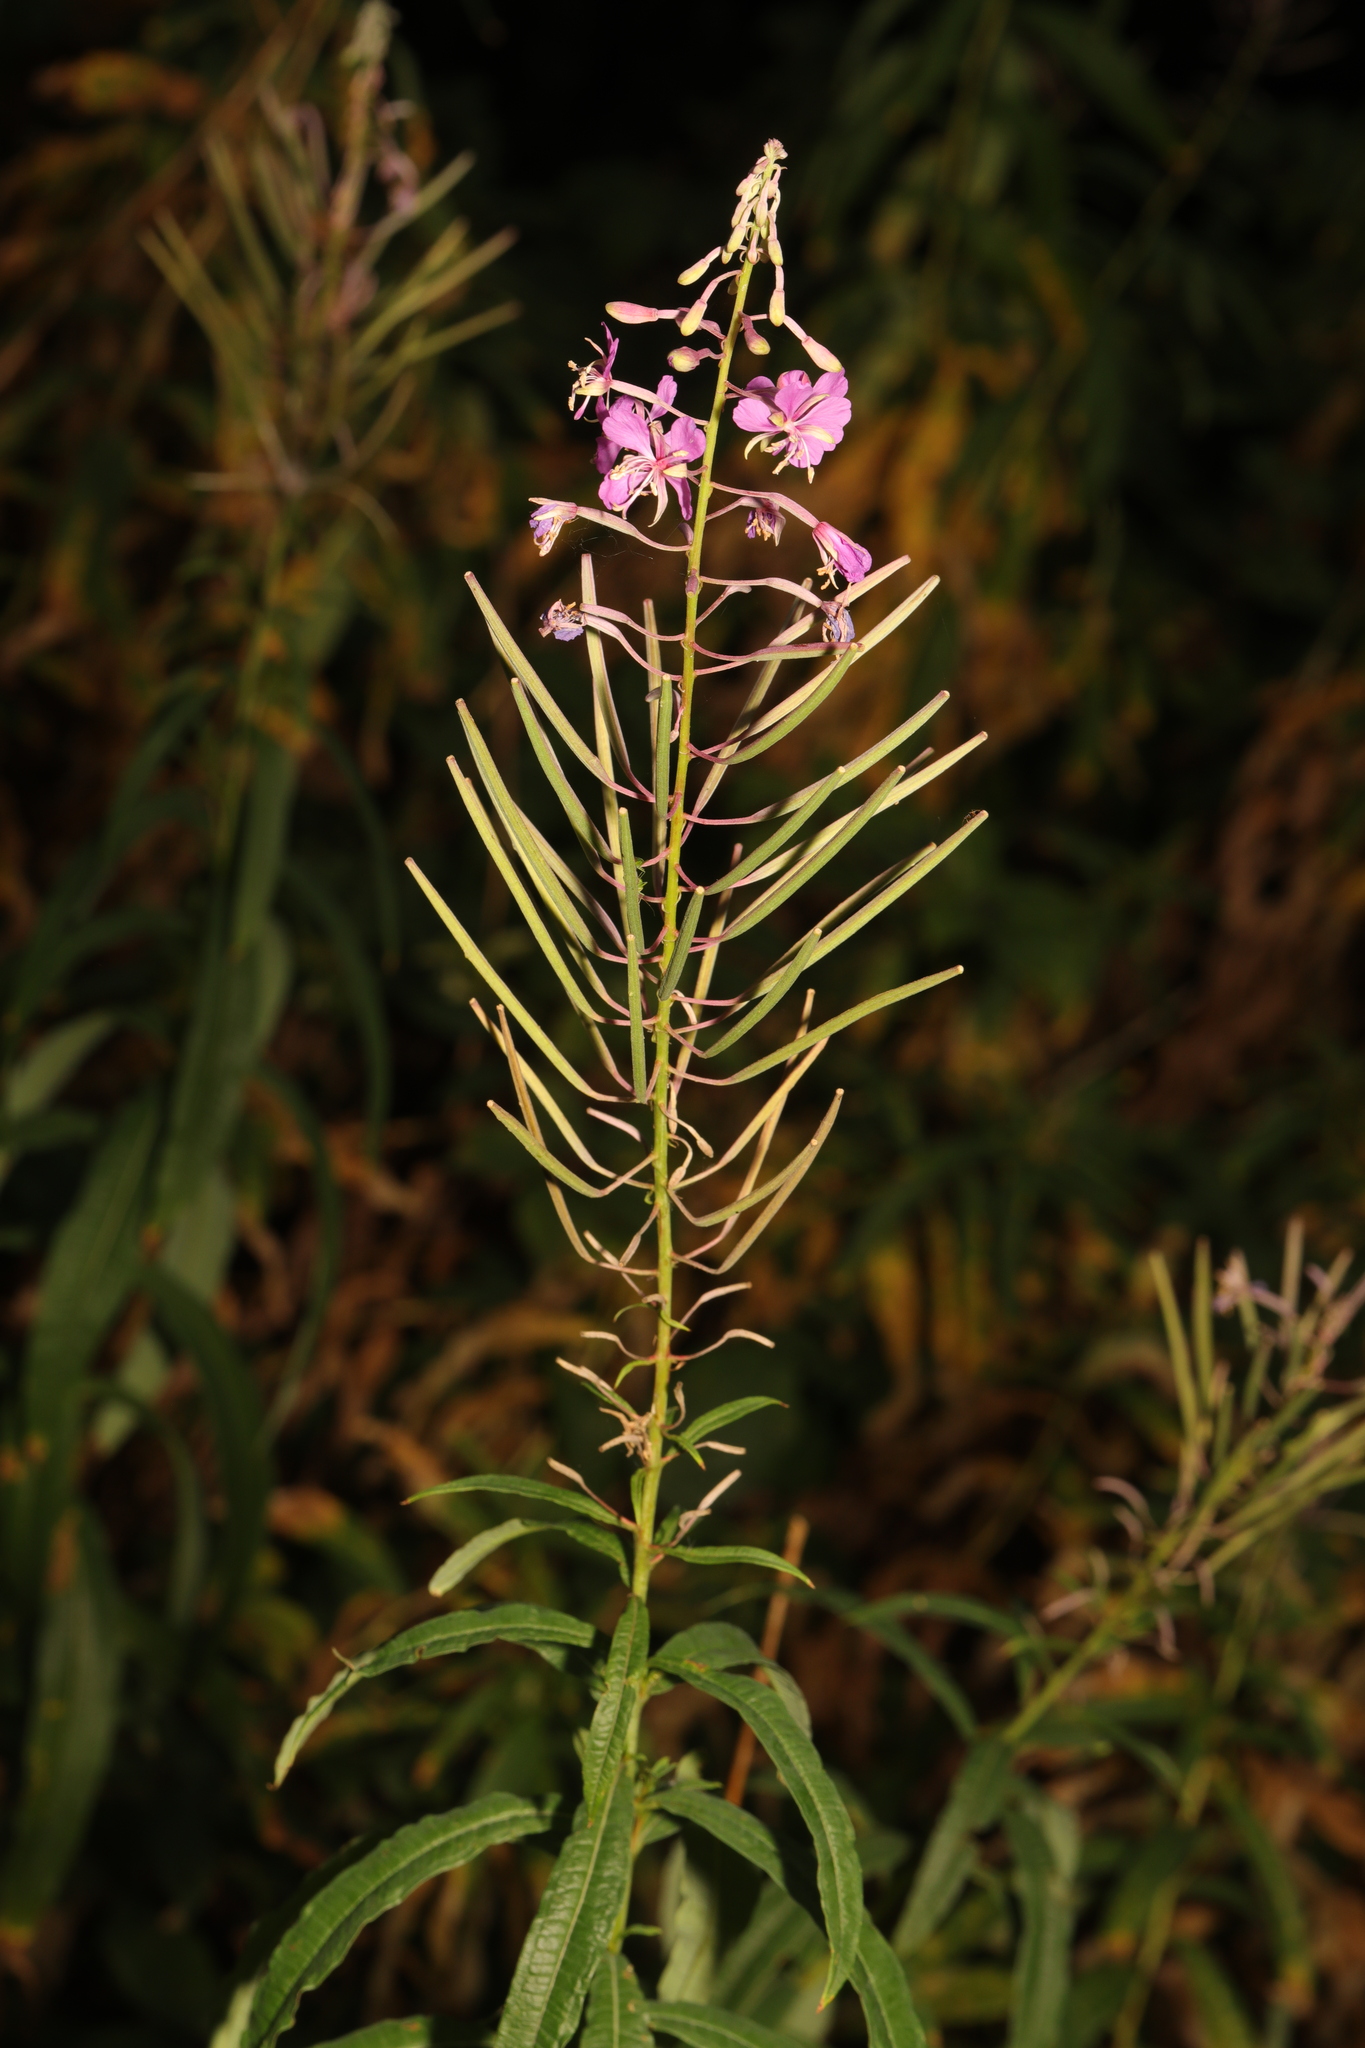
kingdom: Plantae
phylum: Tracheophyta
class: Magnoliopsida
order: Myrtales
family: Onagraceae
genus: Chamaenerion
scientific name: Chamaenerion angustifolium
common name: Fireweed
